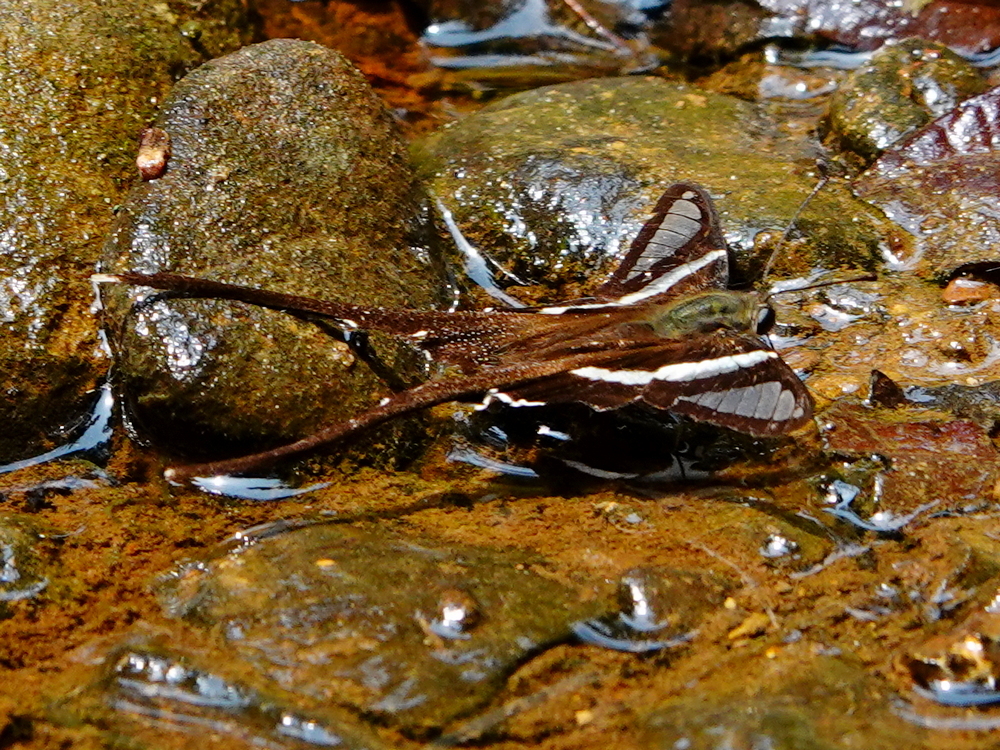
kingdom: Animalia
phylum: Arthropoda
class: Insecta
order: Lepidoptera
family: Papilionidae
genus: Lamproptera
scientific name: Lamproptera curius
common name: White dragontail
